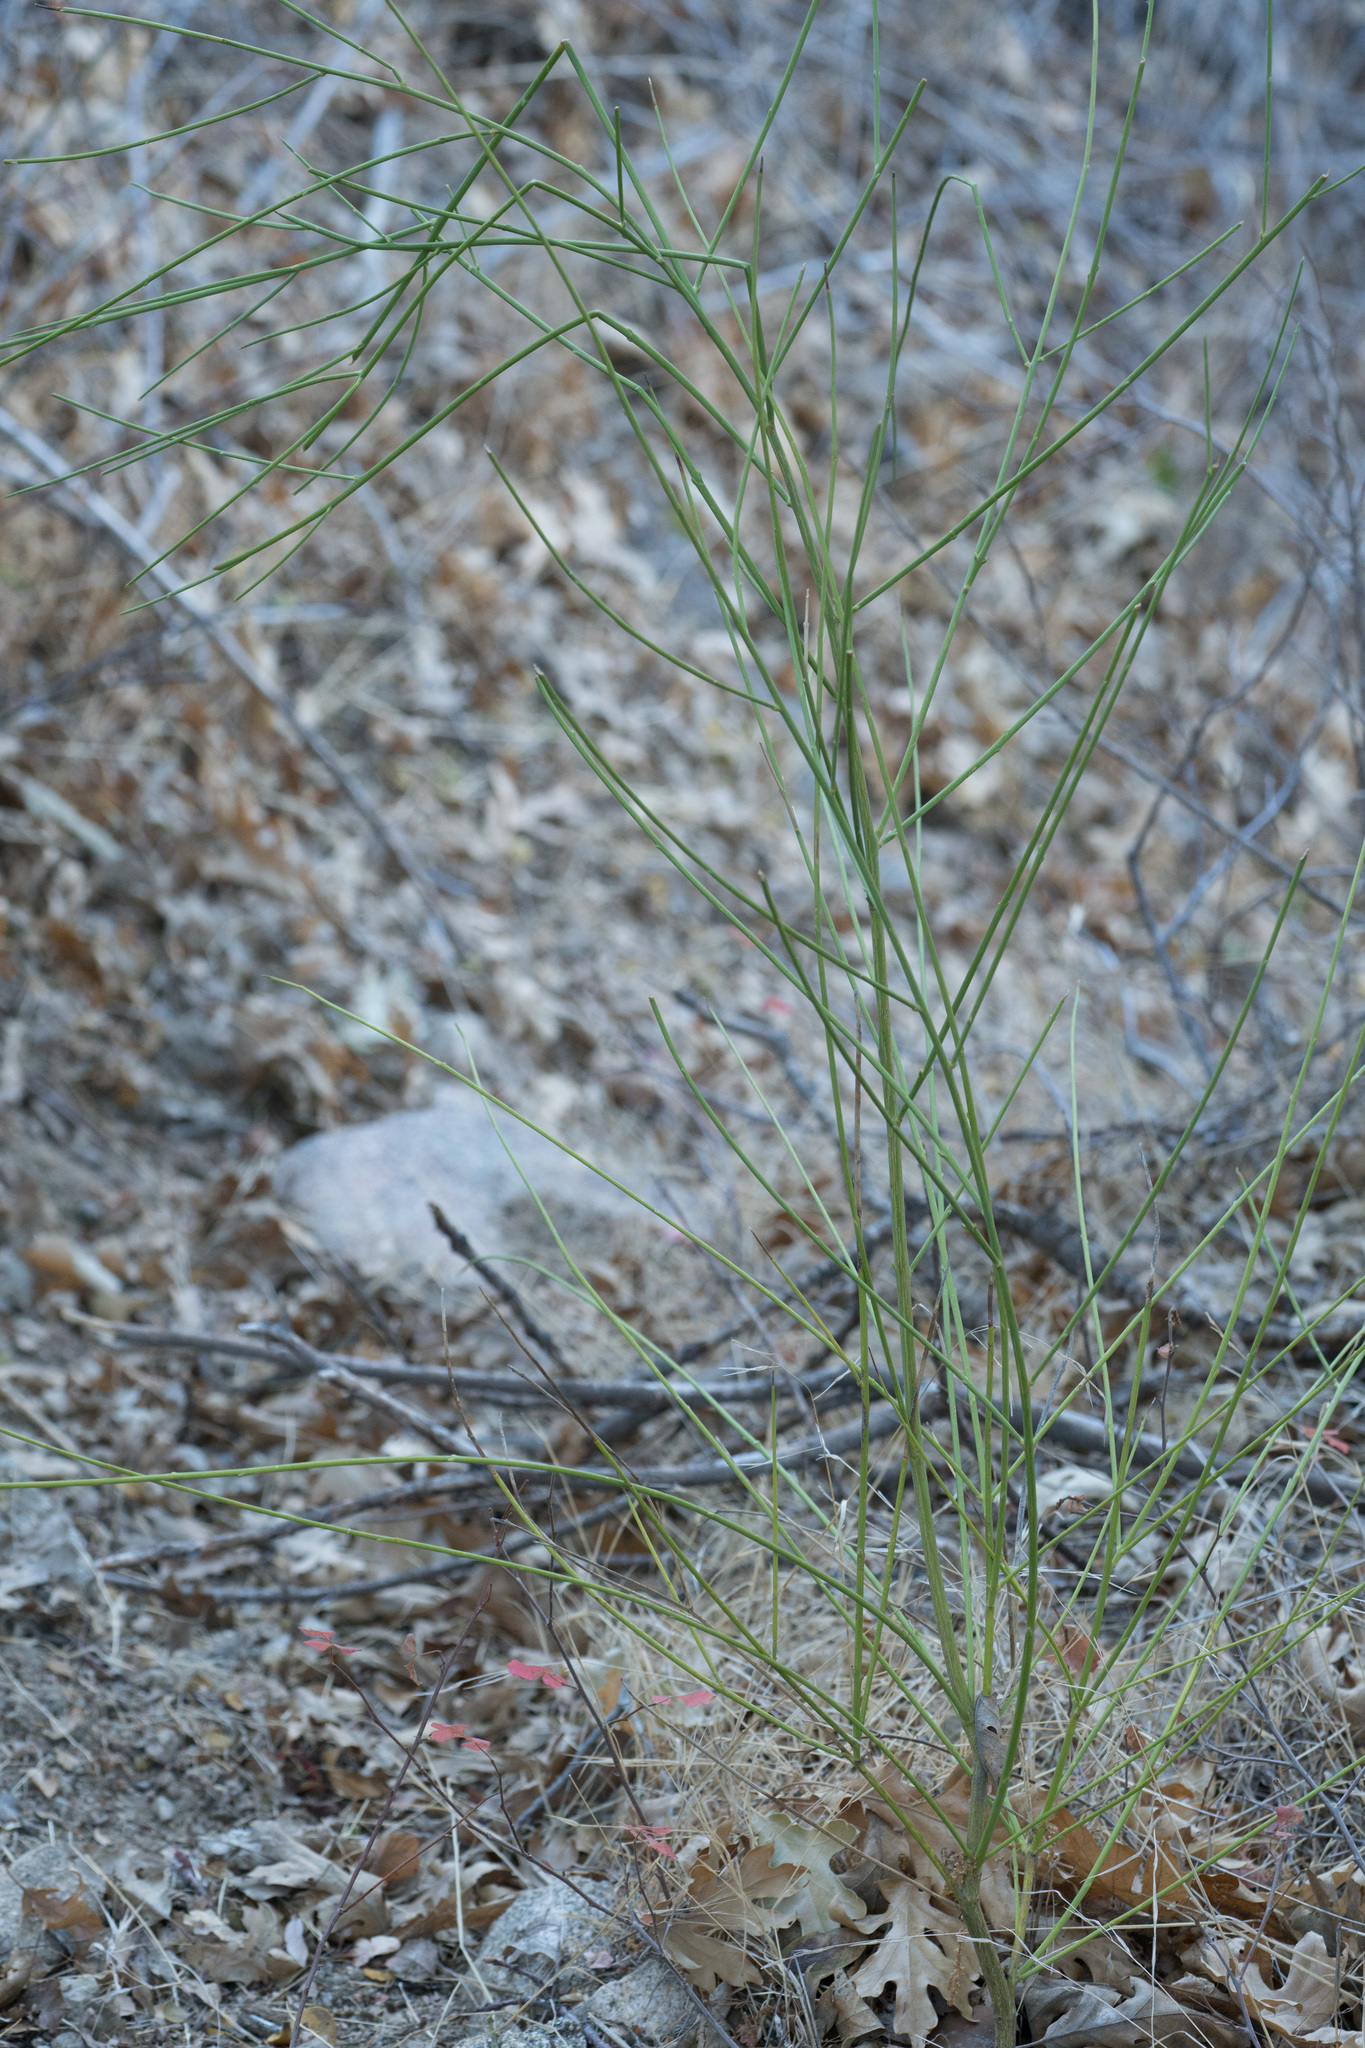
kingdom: Plantae
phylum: Tracheophyta
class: Magnoliopsida
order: Fabales
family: Fabaceae
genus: Spartium
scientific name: Spartium junceum
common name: Spanish broom
